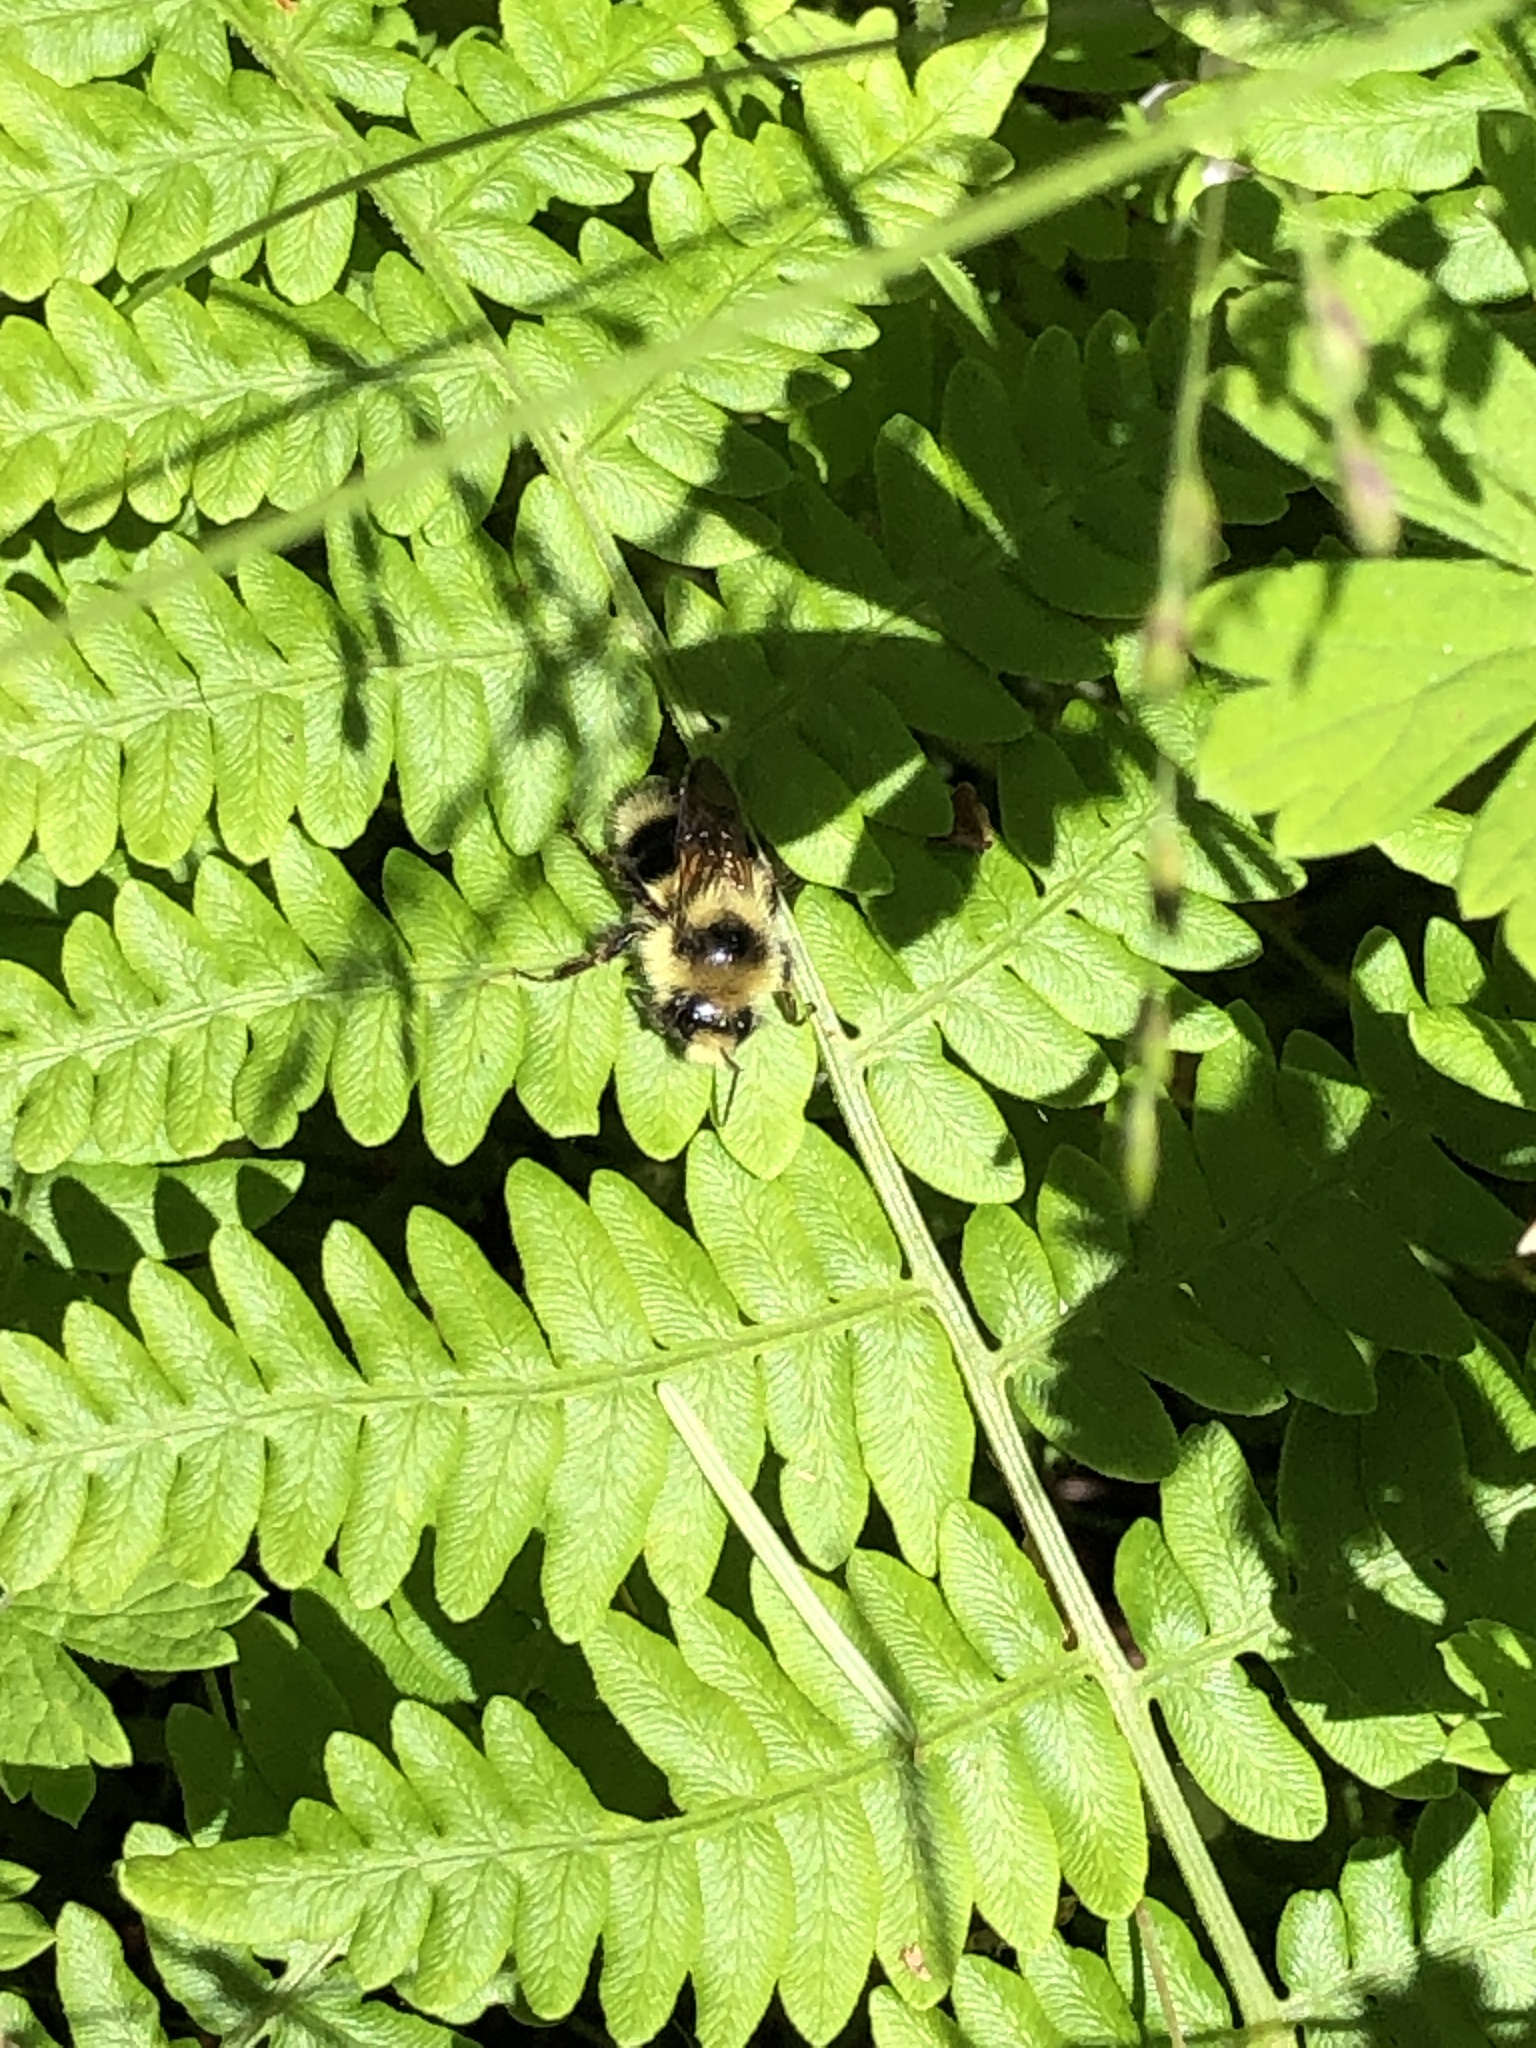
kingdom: Animalia
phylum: Arthropoda
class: Insecta
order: Hymenoptera
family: Apidae
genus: Bombus
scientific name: Bombus melanopygus
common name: Black tail bumble bee
